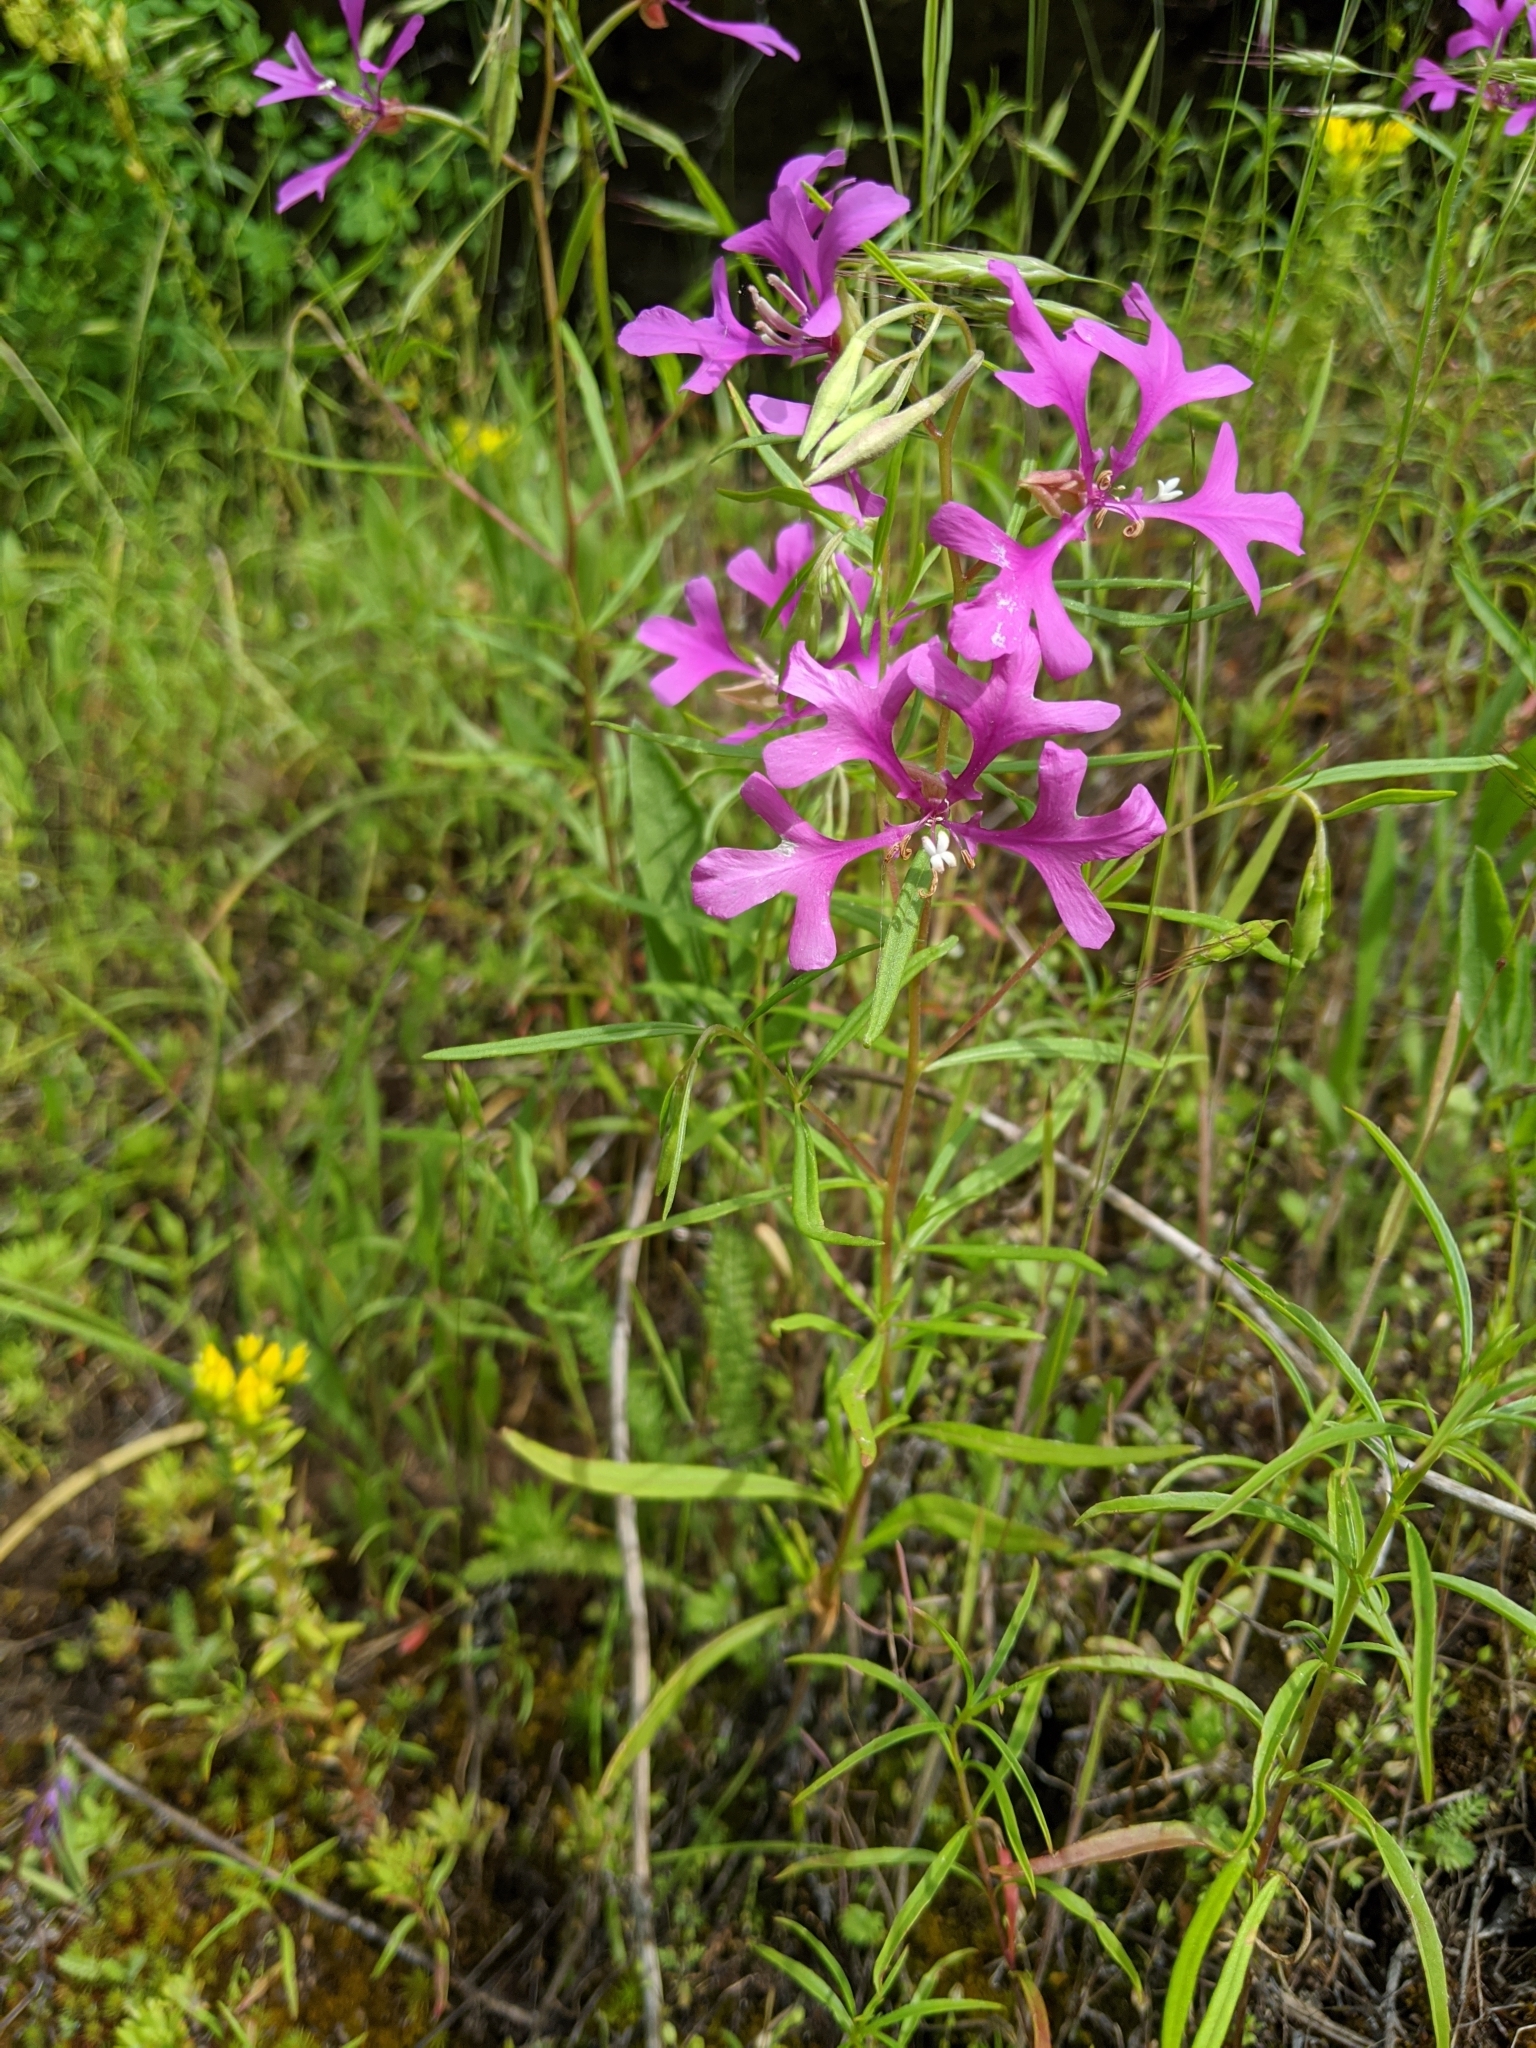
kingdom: Plantae
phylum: Tracheophyta
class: Magnoliopsida
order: Myrtales
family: Onagraceae
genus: Clarkia
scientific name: Clarkia pulchella
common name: Deer horn
